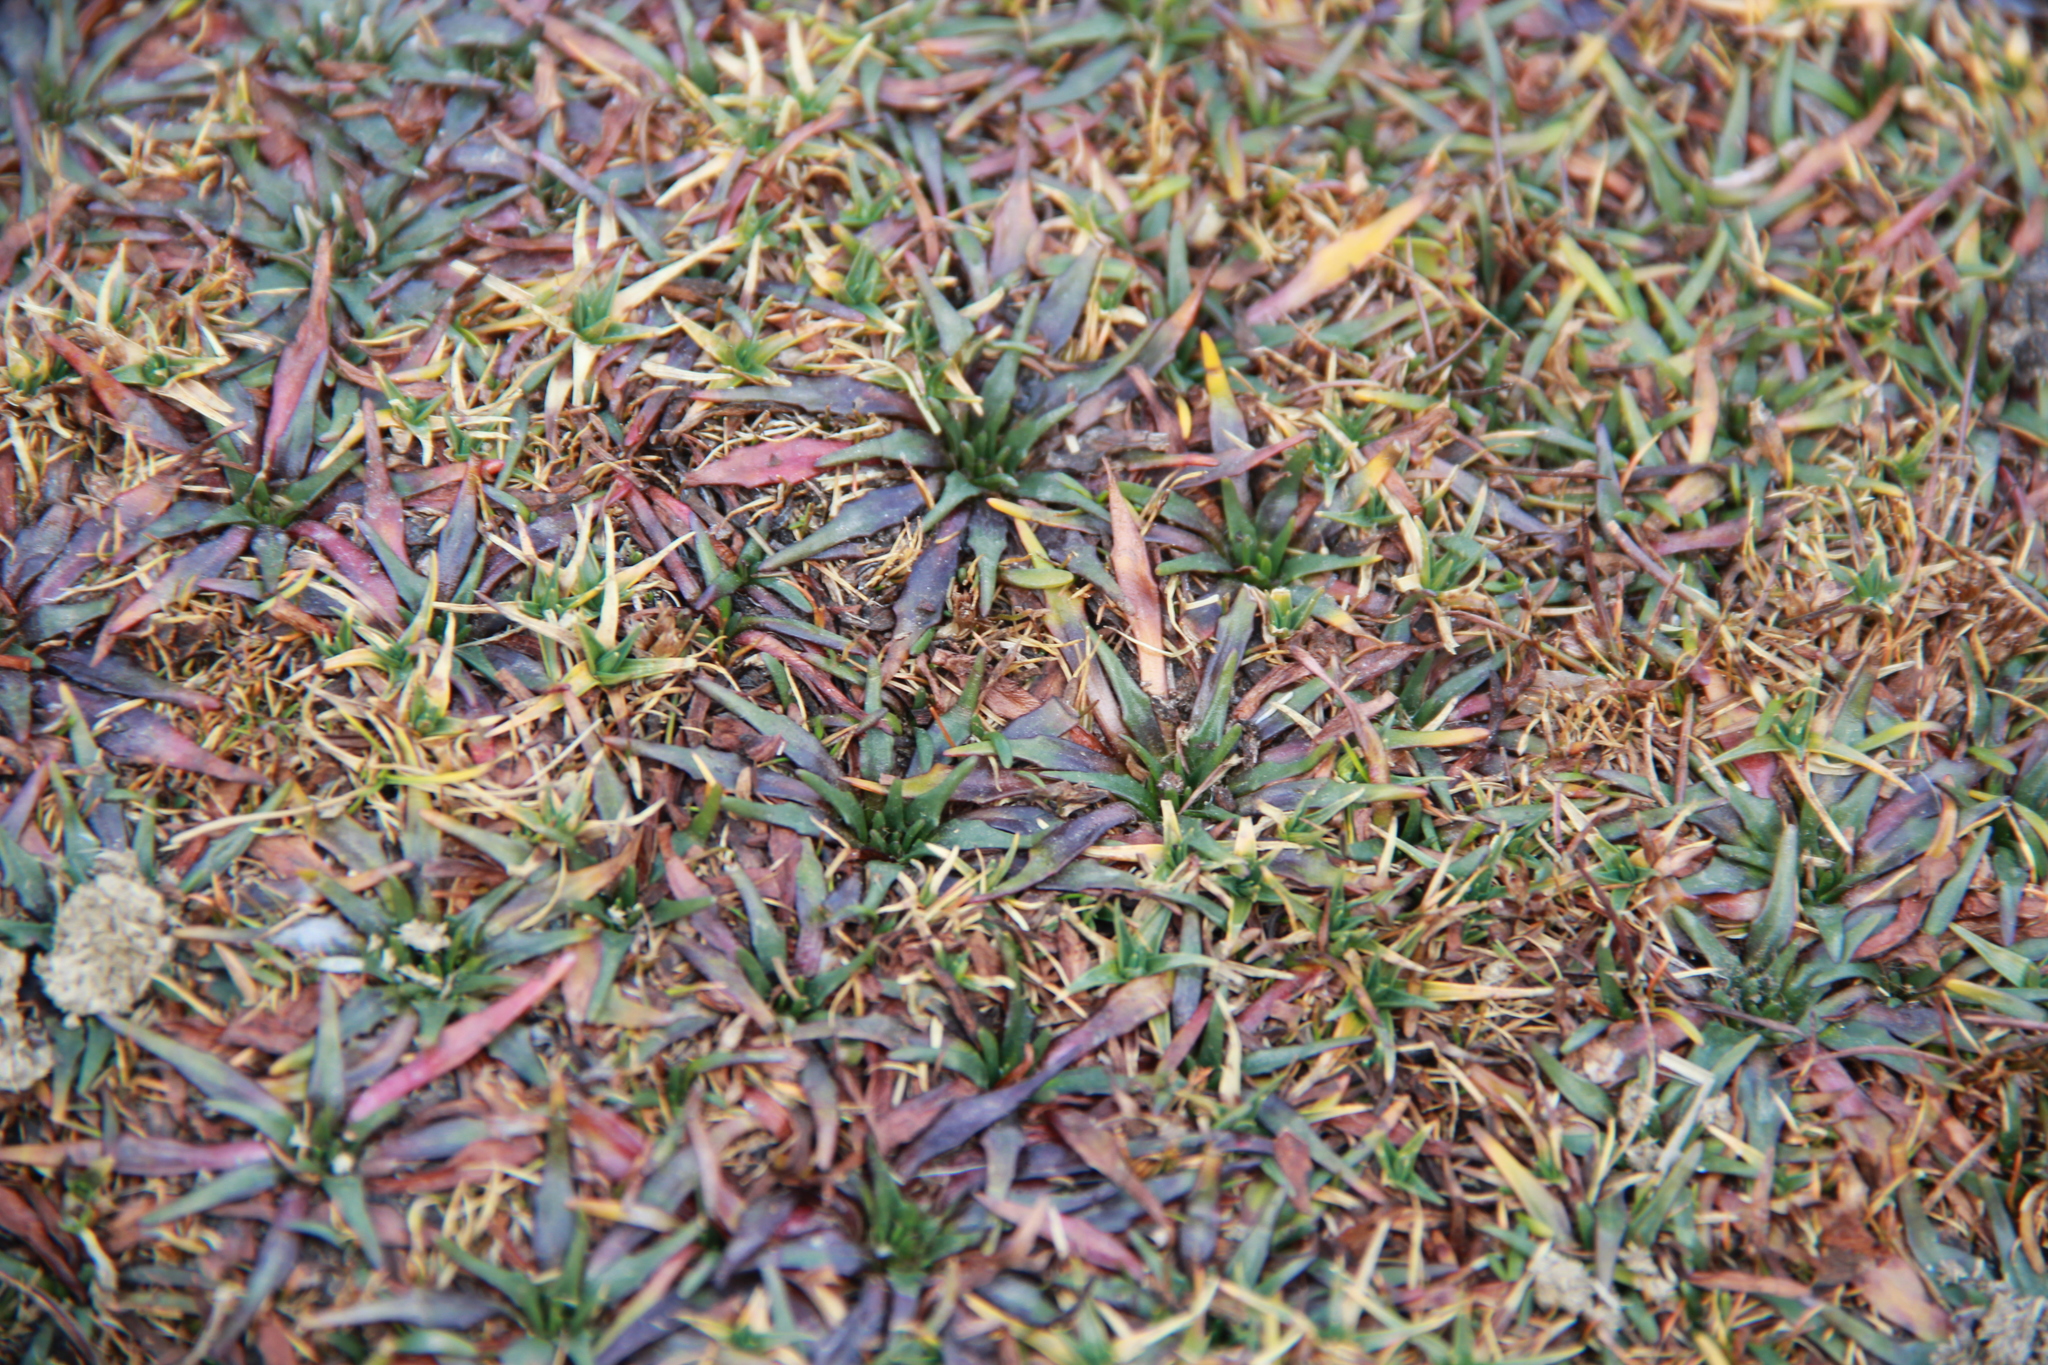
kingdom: Plantae
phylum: Tracheophyta
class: Magnoliopsida
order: Lamiales
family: Plantaginaceae
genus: Plantago
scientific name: Plantago tubulosa
